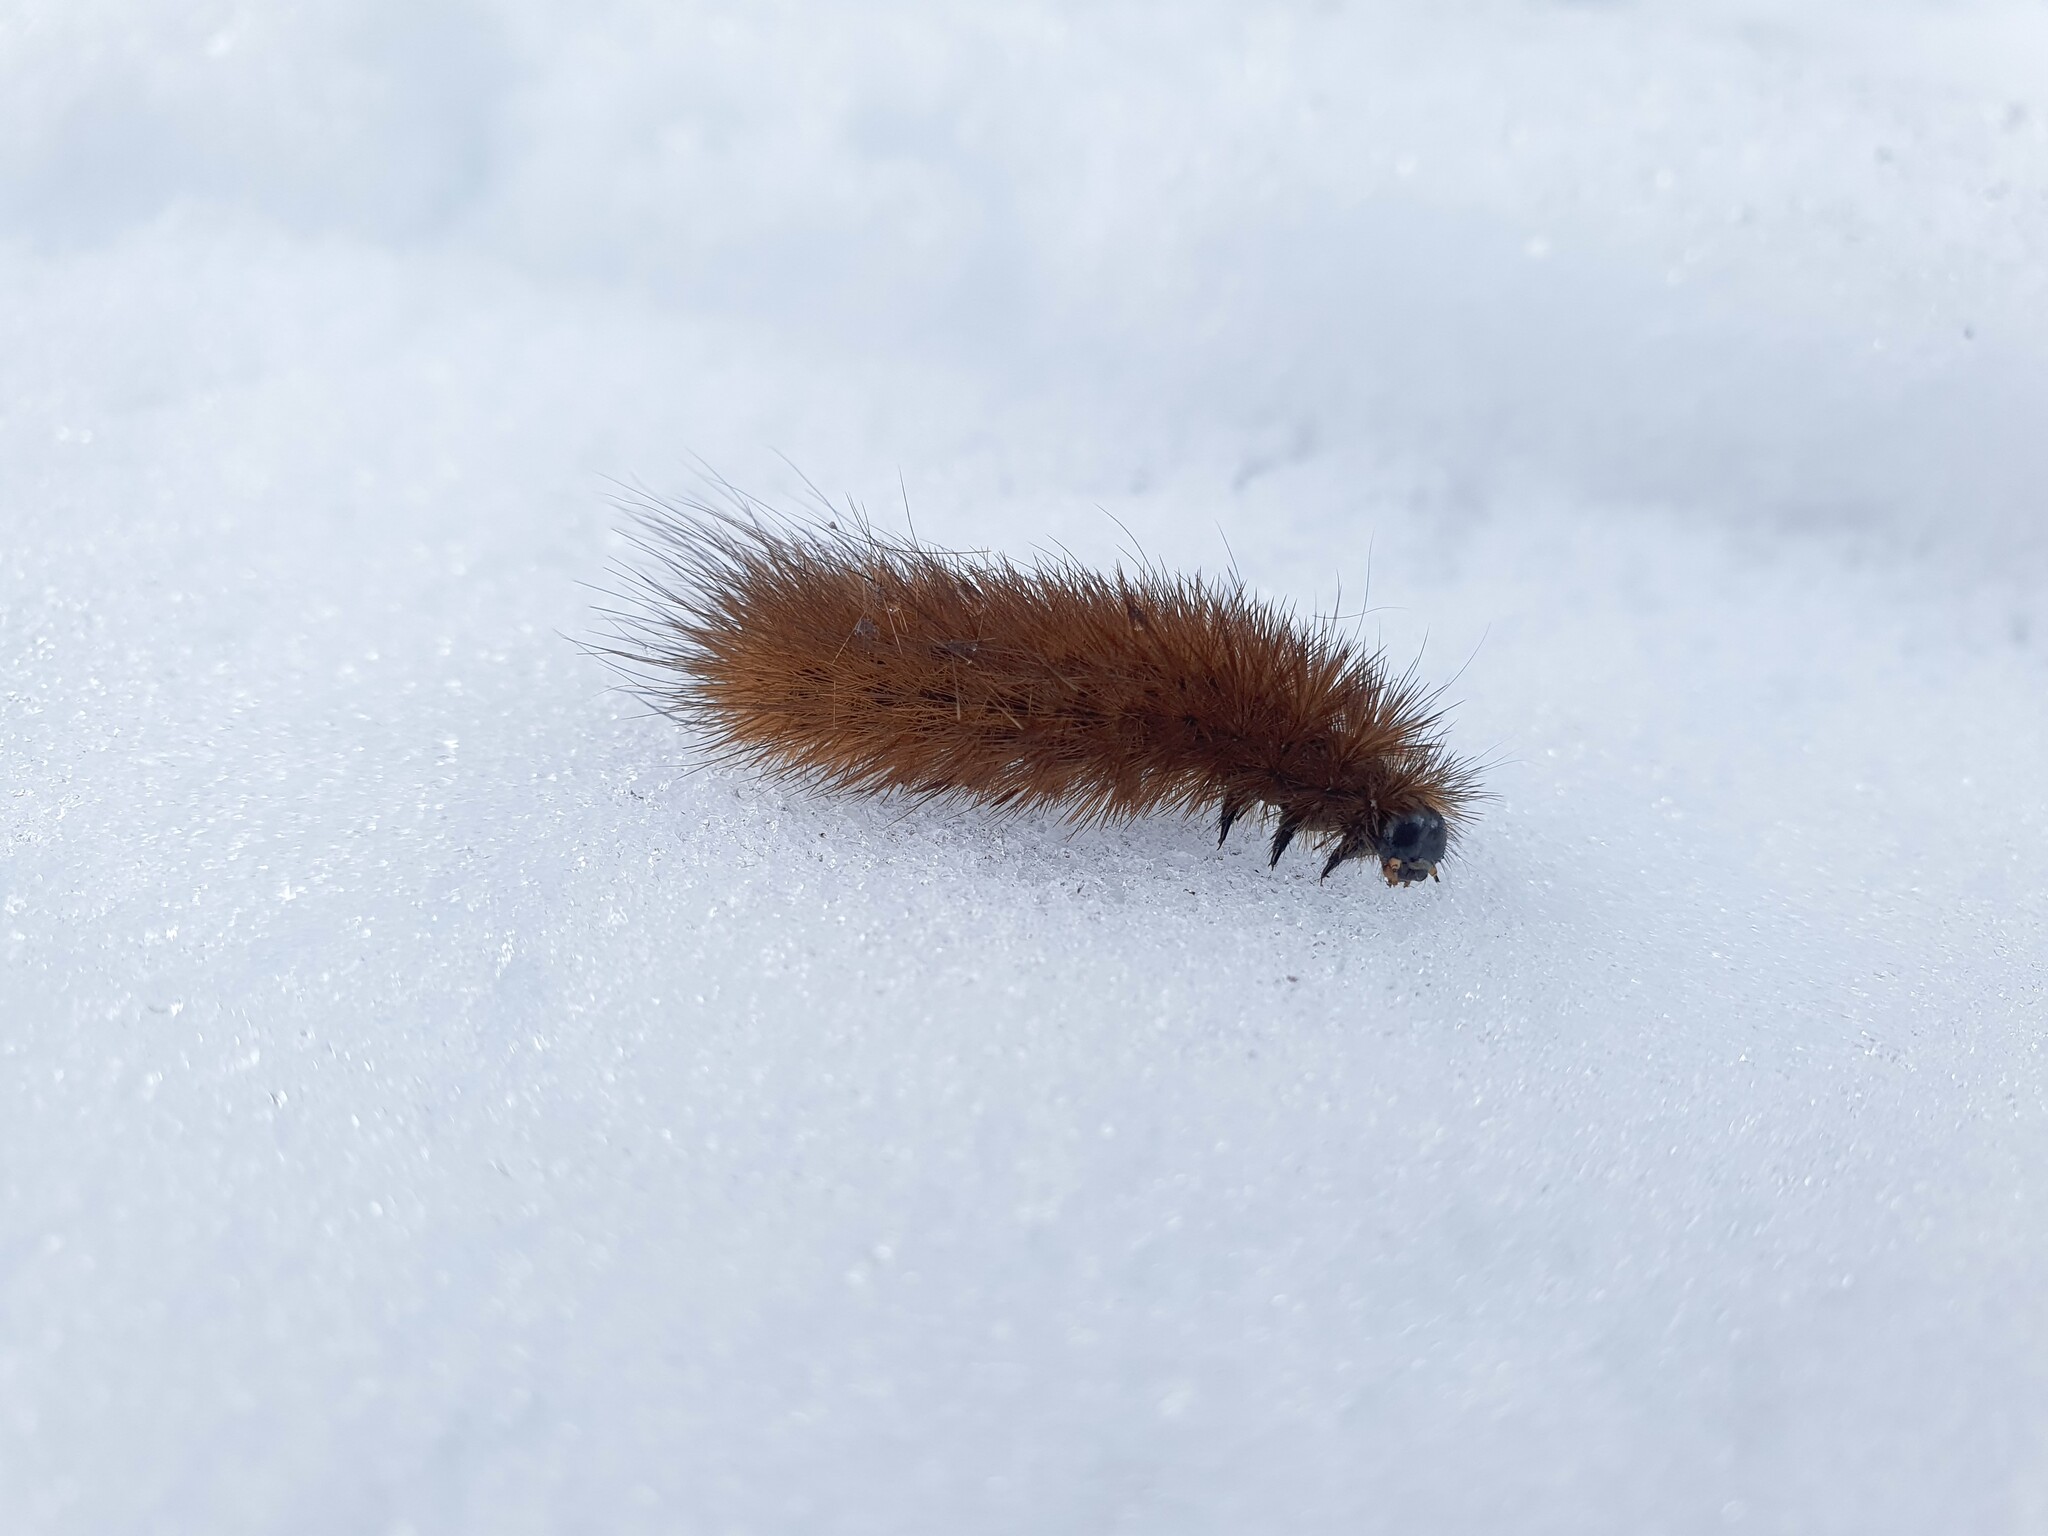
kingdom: Animalia
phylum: Arthropoda
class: Insecta
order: Lepidoptera
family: Erebidae
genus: Phragmatobia
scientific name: Phragmatobia fuliginosa
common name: Ruby tiger
